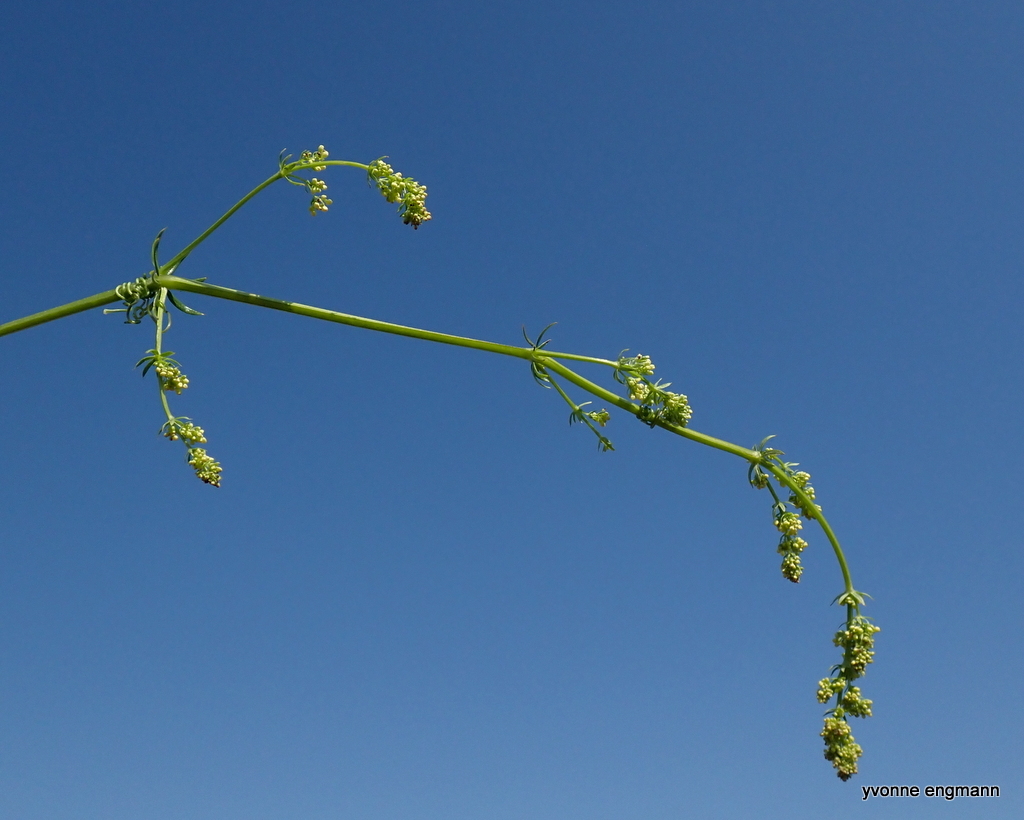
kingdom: Plantae
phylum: Tracheophyta
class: Magnoliopsida
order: Gentianales
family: Rubiaceae
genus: Galium
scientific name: Galium verum
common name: Lady's bedstraw
